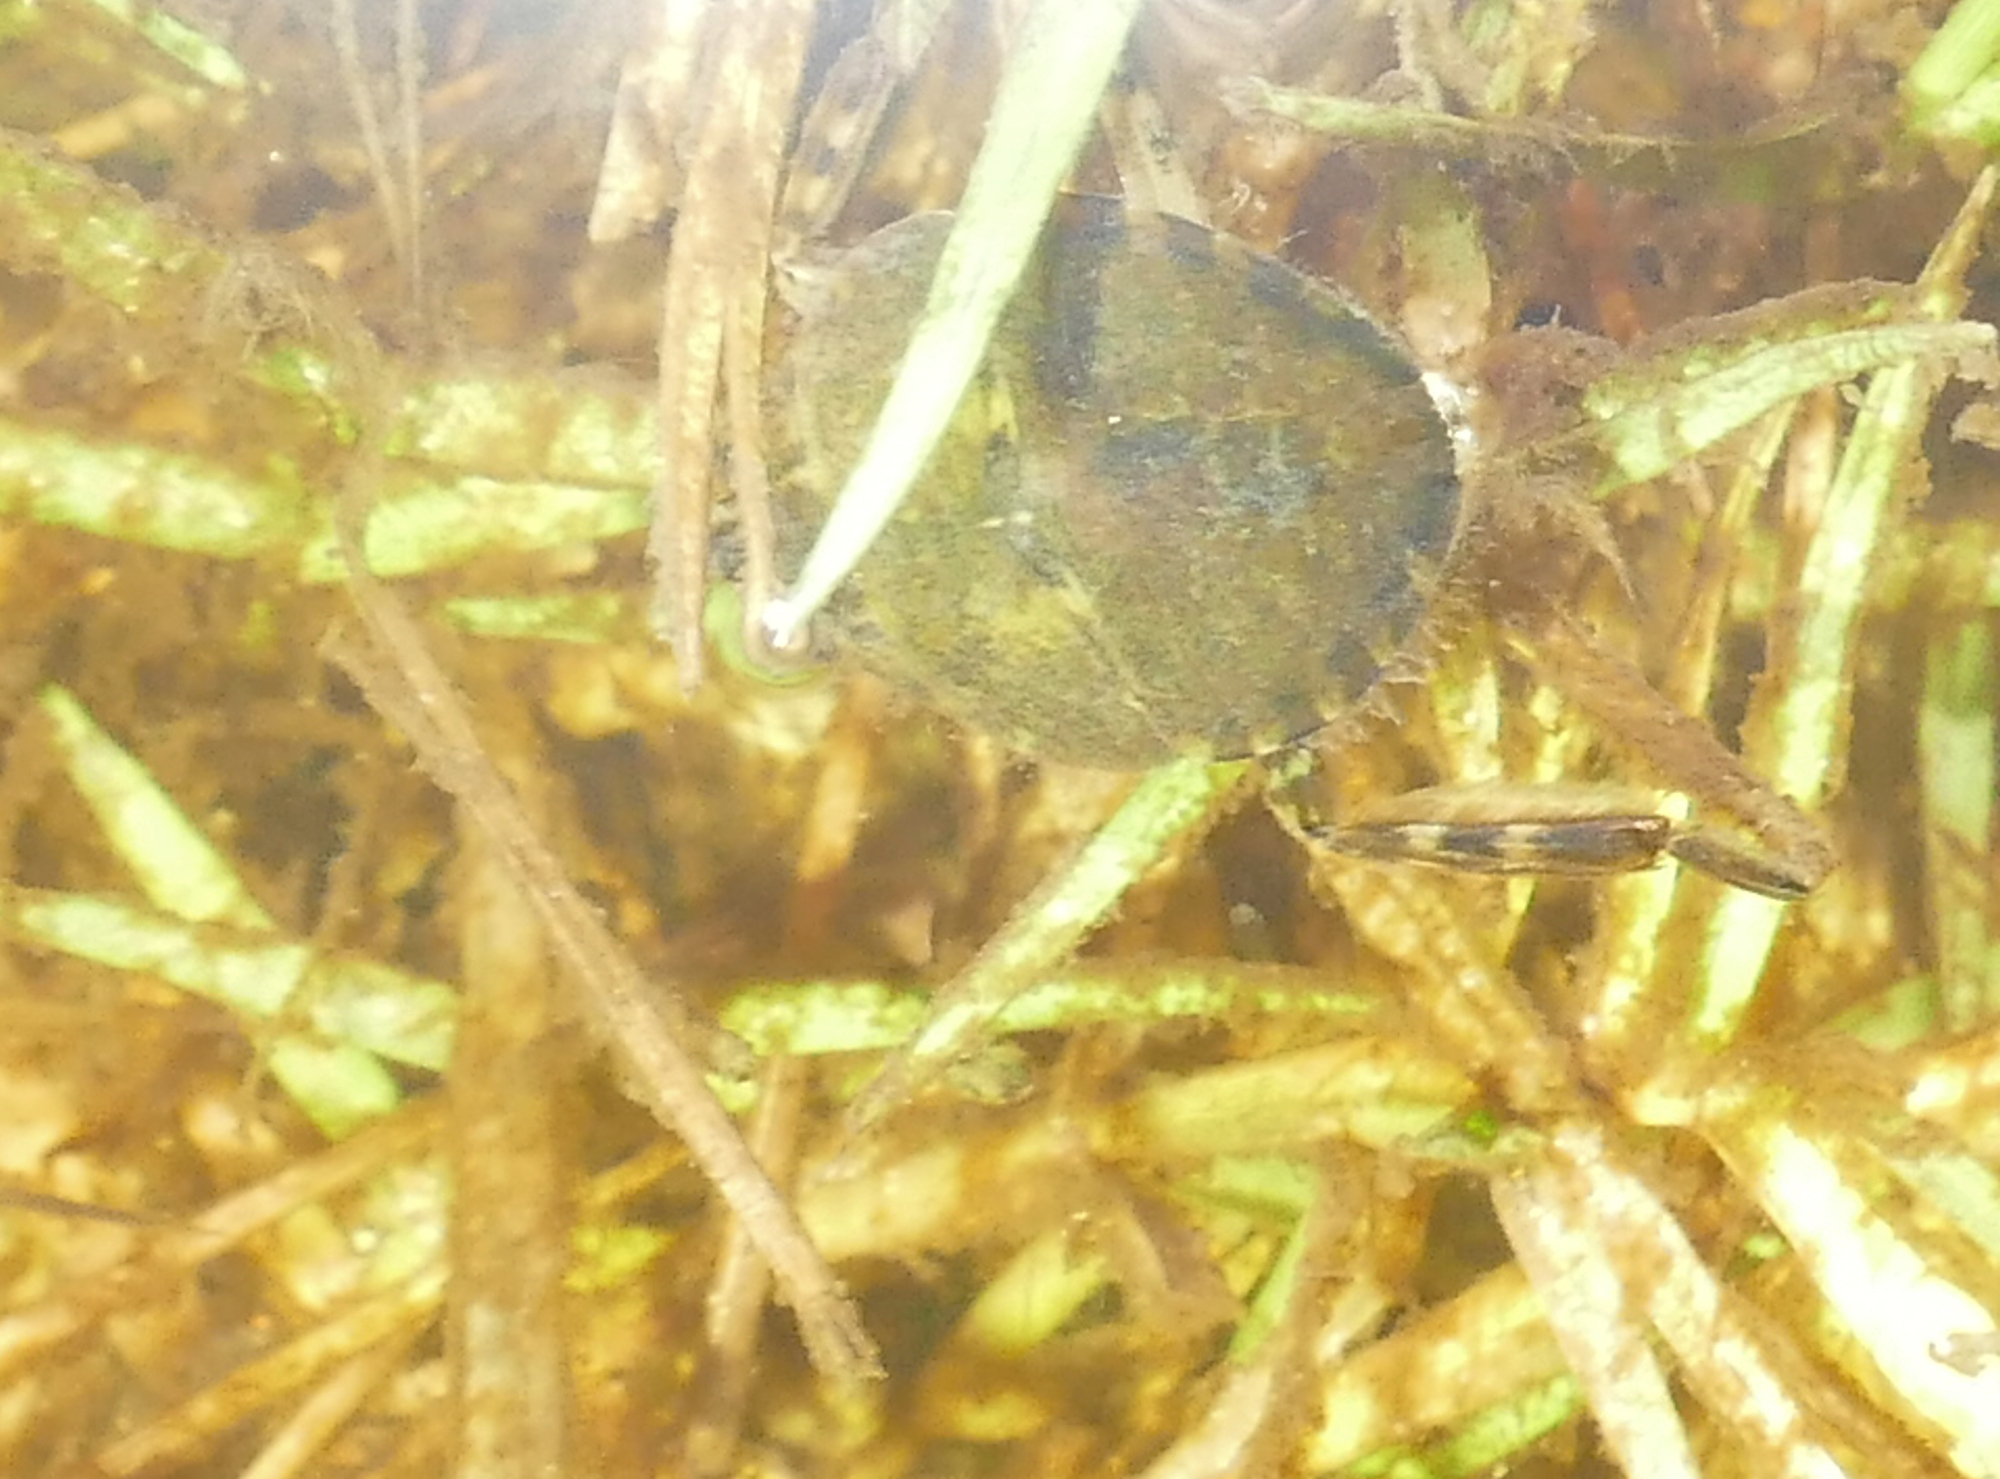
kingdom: Animalia
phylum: Arthropoda
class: Insecta
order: Hemiptera
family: Belostomatidae
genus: Belostoma
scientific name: Belostoma
